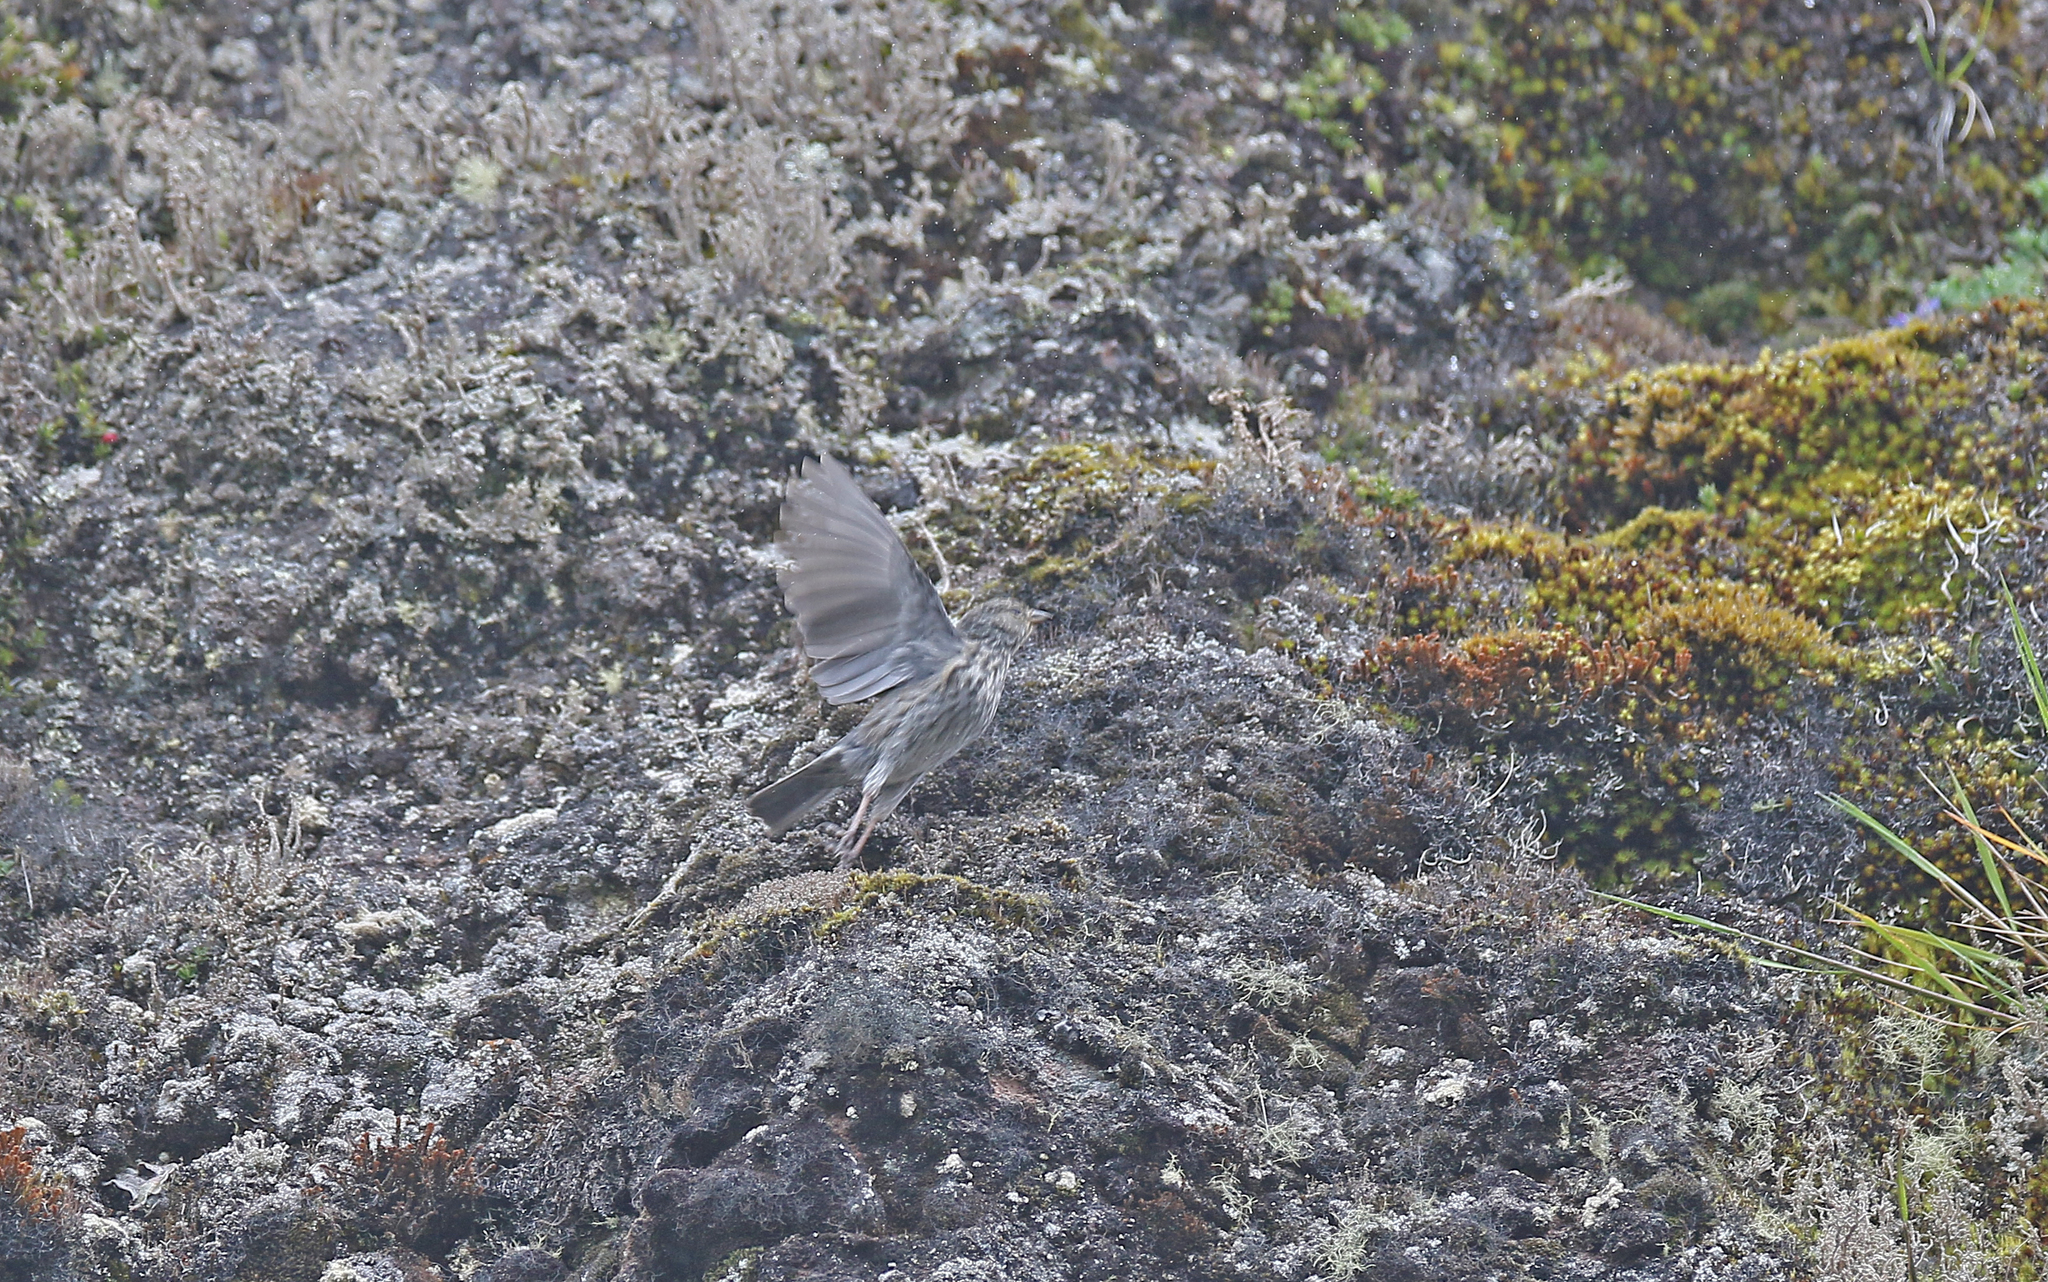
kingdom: Animalia
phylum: Chordata
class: Aves
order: Passeriformes
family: Thraupidae
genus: Geospizopsis
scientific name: Geospizopsis unicolor
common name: Plumbeous sierra-finch
